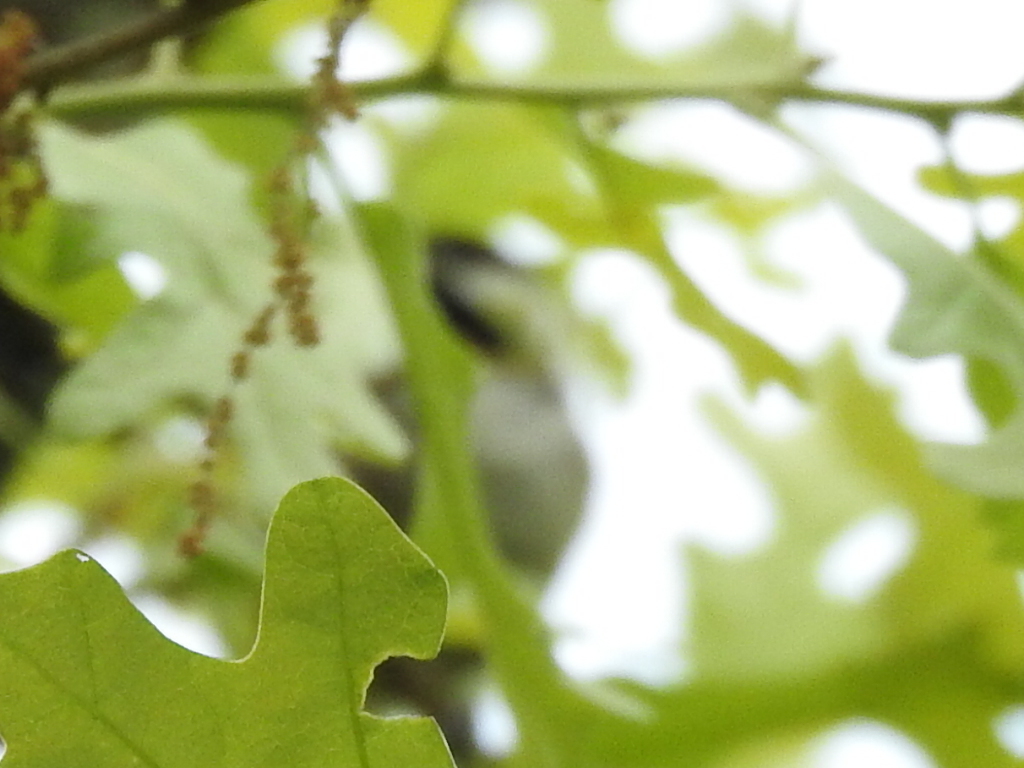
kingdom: Animalia
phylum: Chordata
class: Aves
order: Passeriformes
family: Paridae
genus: Poecile
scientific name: Poecile carolinensis
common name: Carolina chickadee
